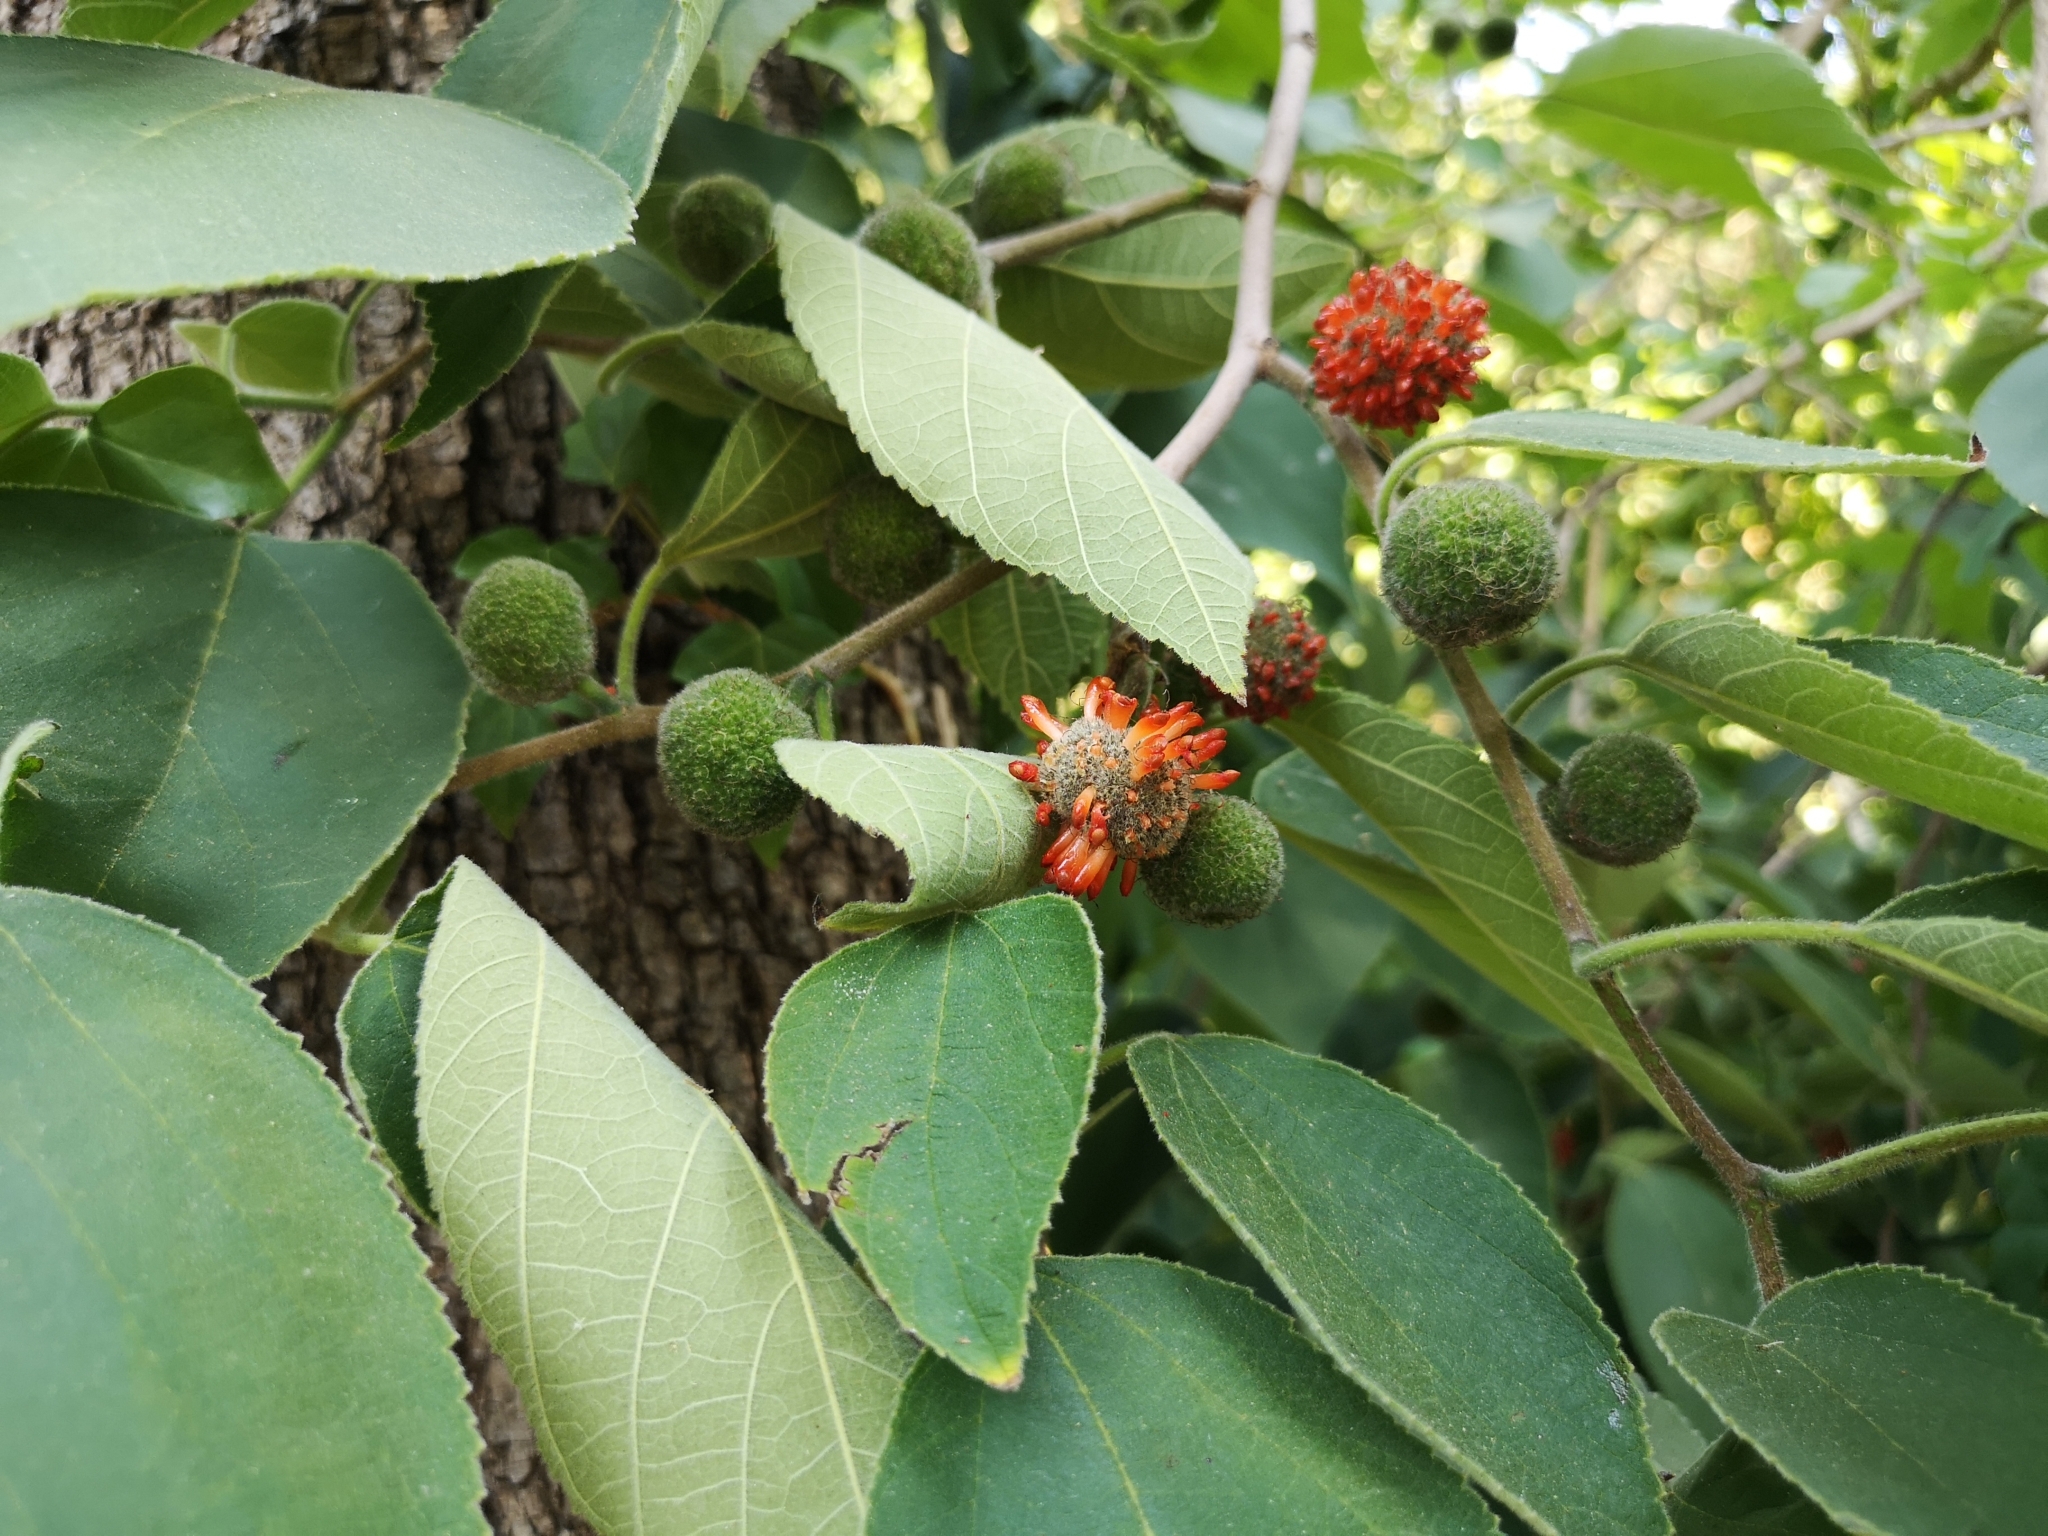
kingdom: Plantae
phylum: Tracheophyta
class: Magnoliopsida
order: Rosales
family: Moraceae
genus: Broussonetia
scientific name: Broussonetia papyrifera
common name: Paper mulberry
